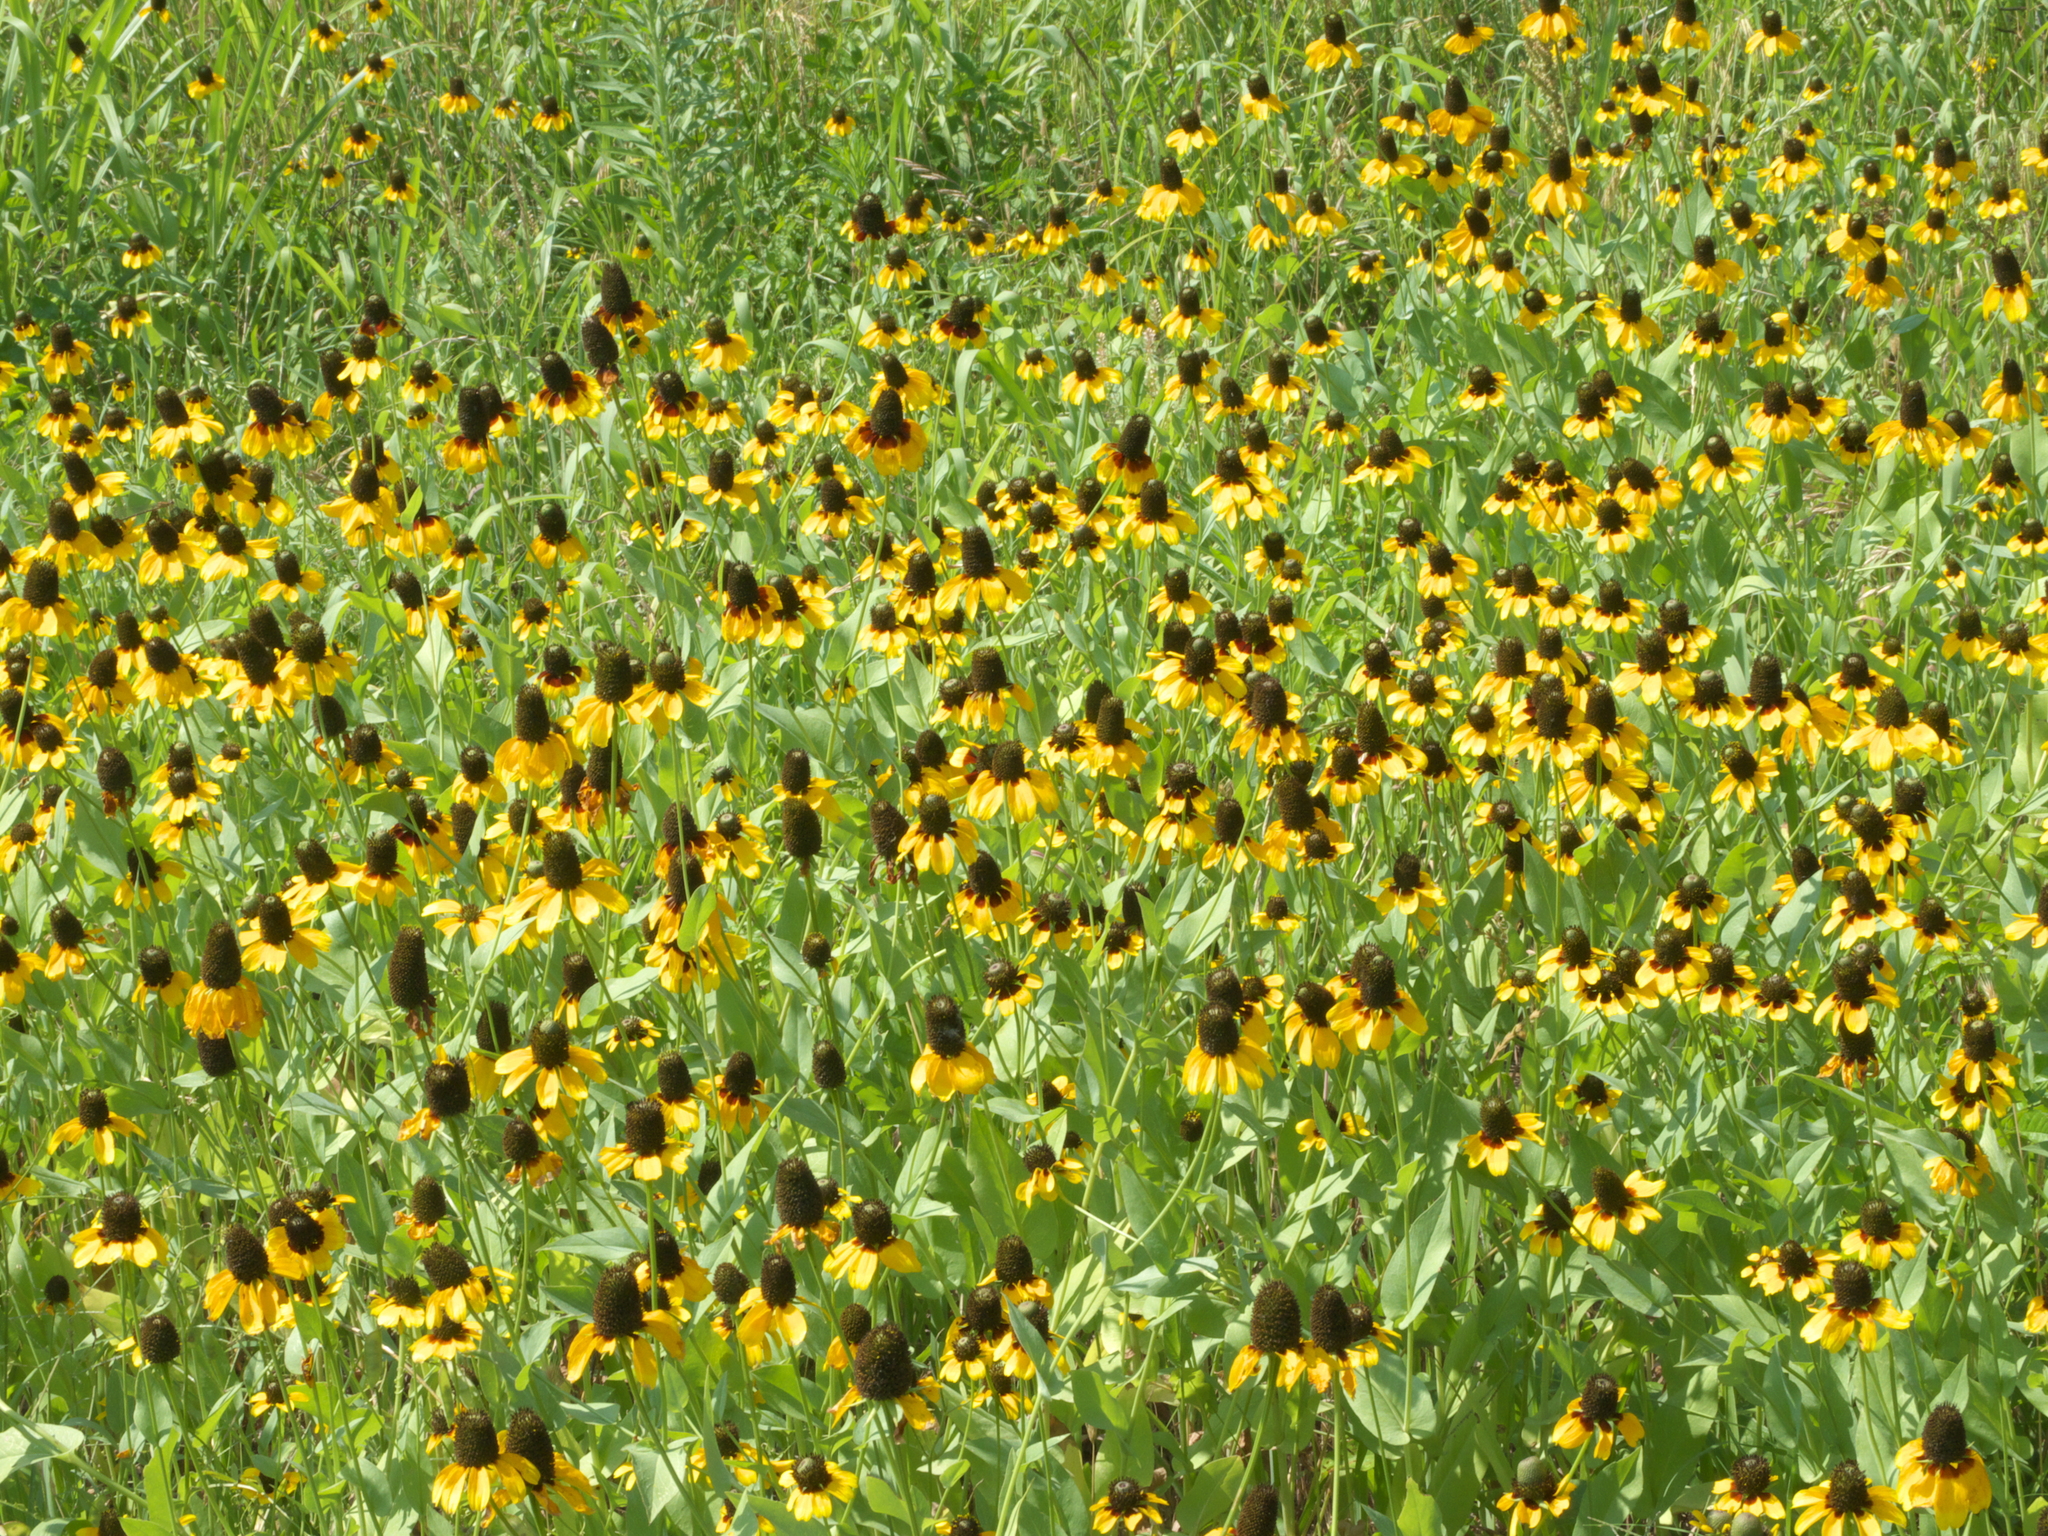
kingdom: Plantae
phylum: Tracheophyta
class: Magnoliopsida
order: Asterales
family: Asteraceae
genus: Rudbeckia
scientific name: Rudbeckia amplexicaulis
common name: Clasping-leaf coneflower
